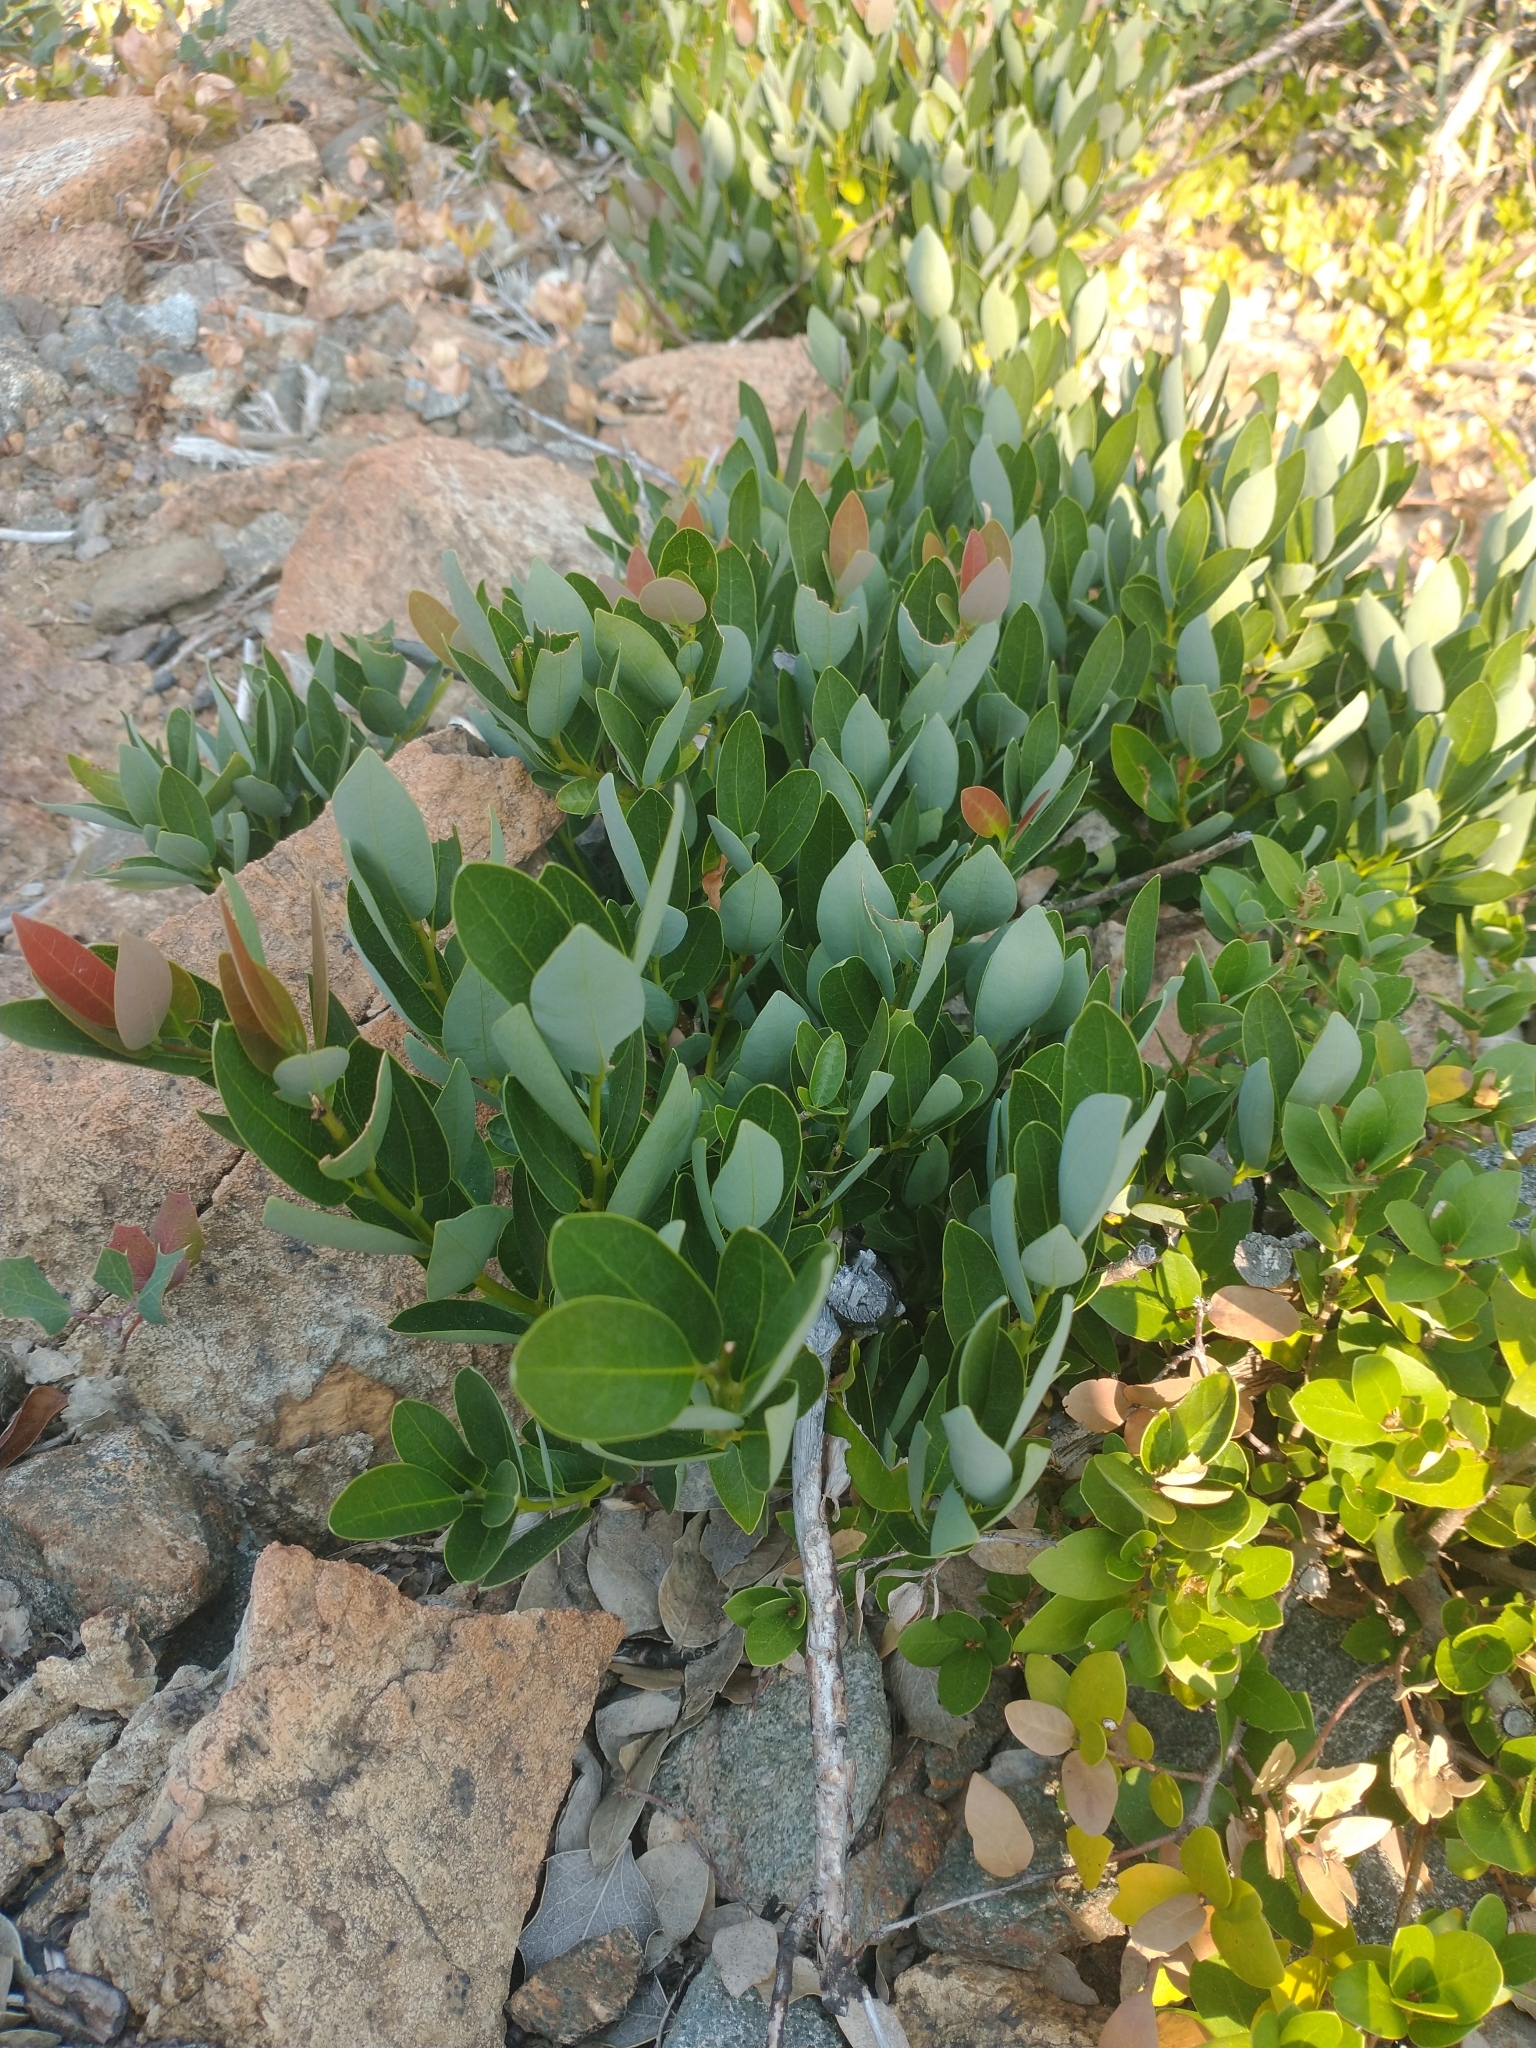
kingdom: Plantae
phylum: Tracheophyta
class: Magnoliopsida
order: Laurales
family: Lauraceae
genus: Umbellularia
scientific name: Umbellularia californica
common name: California bay
